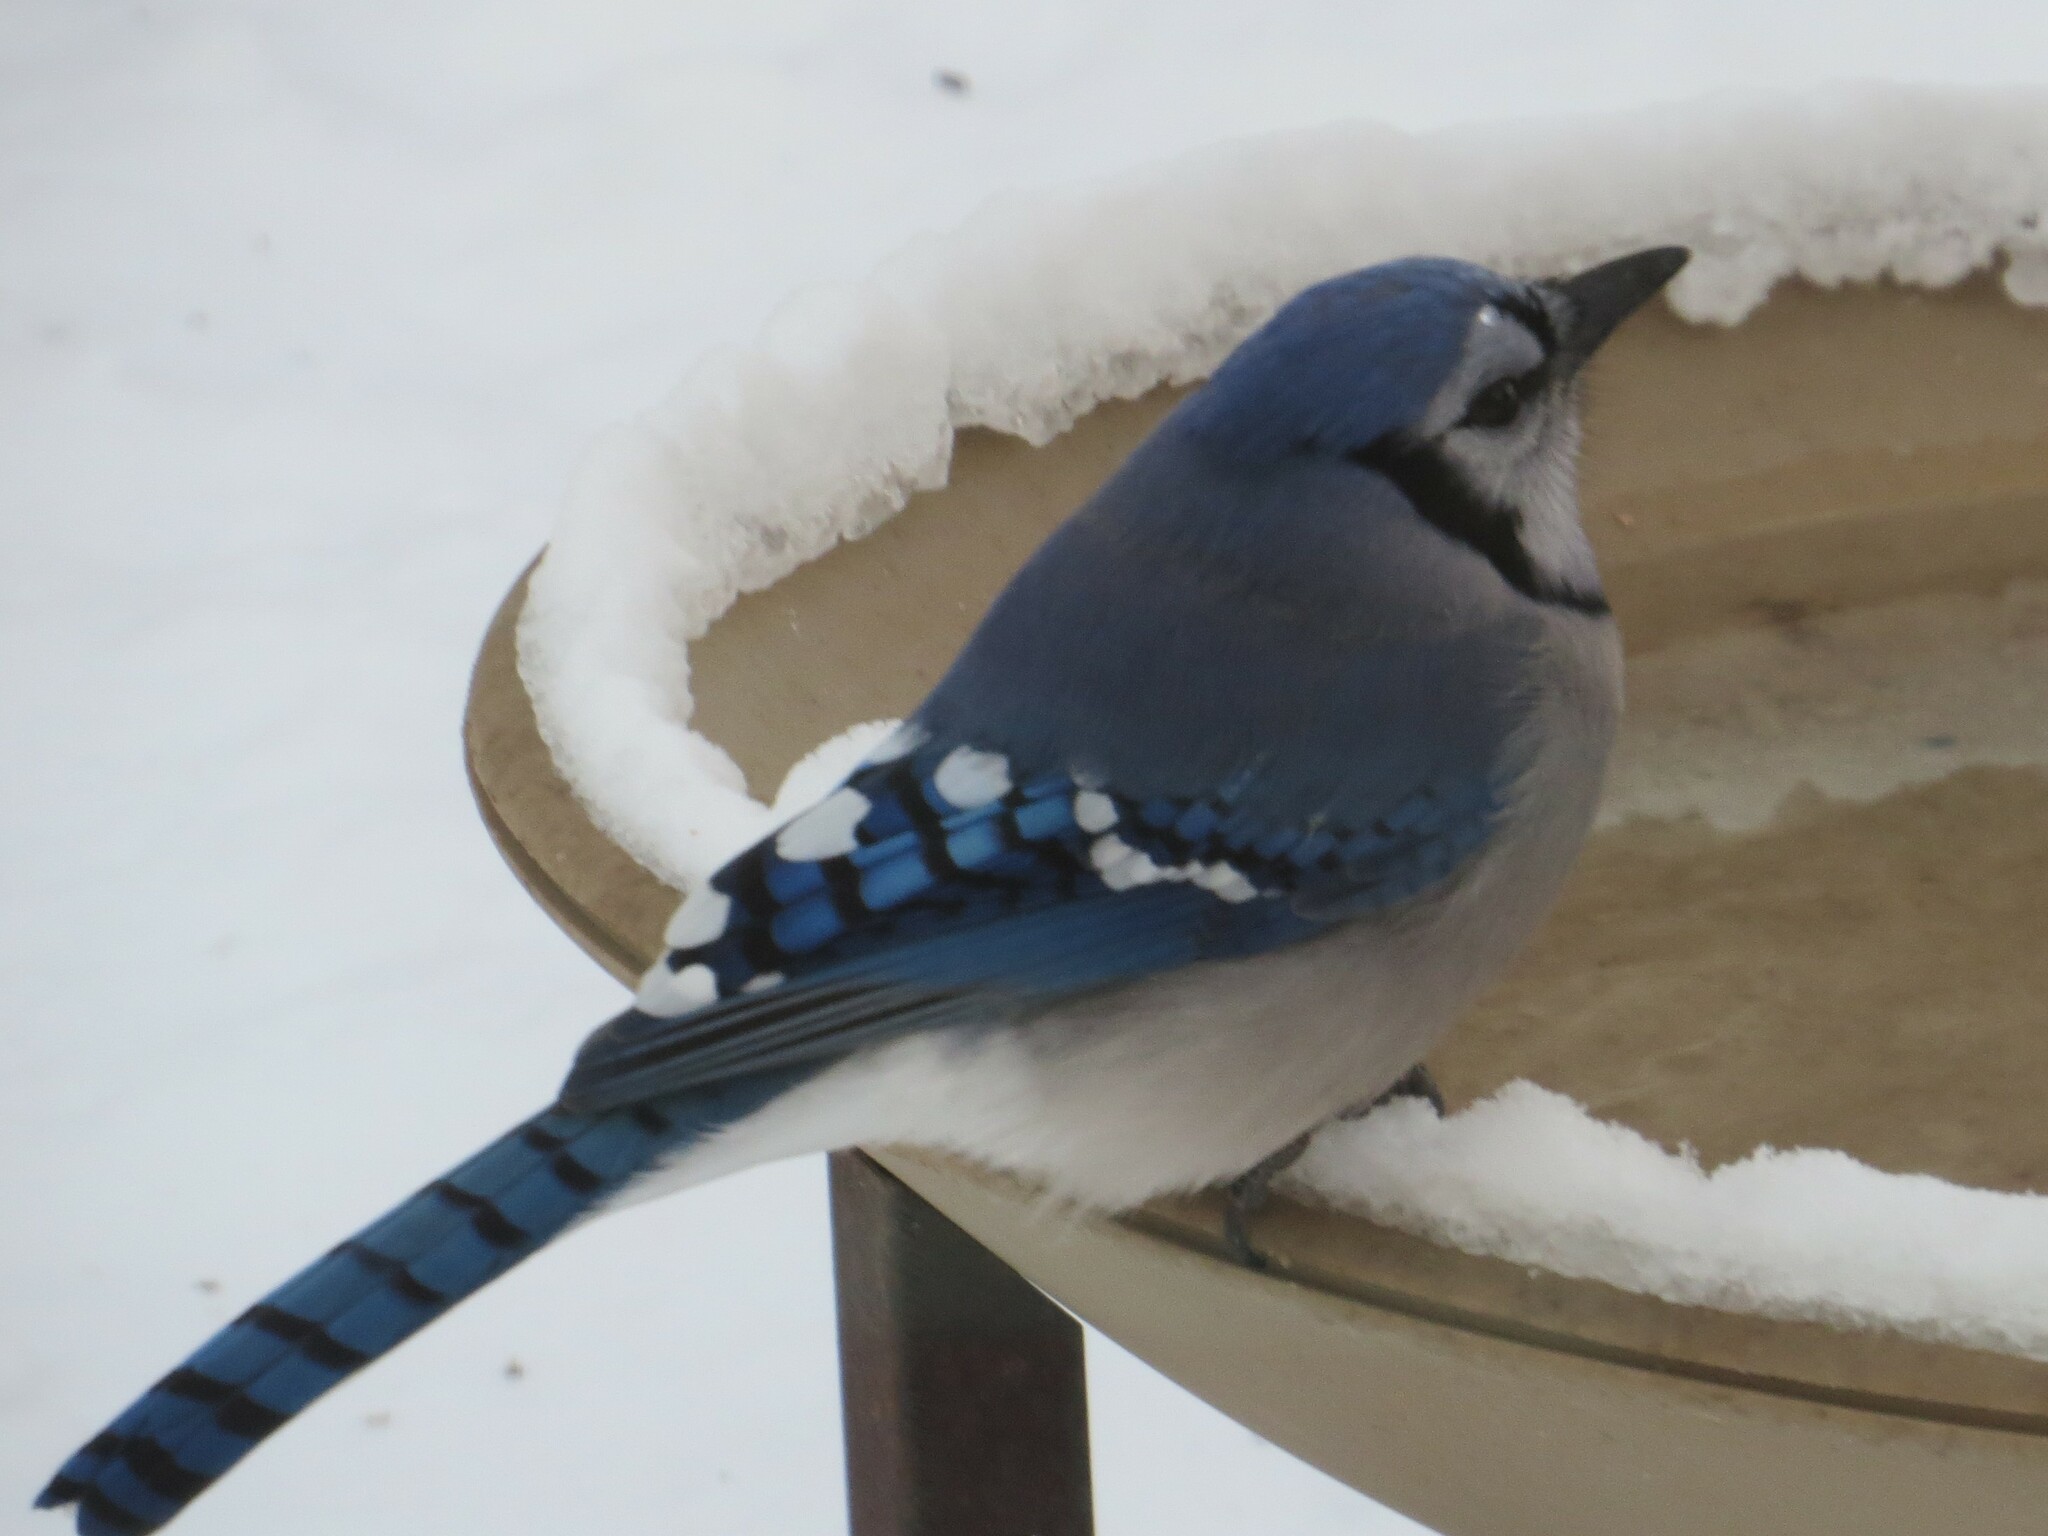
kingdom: Animalia
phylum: Chordata
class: Aves
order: Passeriformes
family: Corvidae
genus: Cyanocitta
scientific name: Cyanocitta cristata
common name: Blue jay
